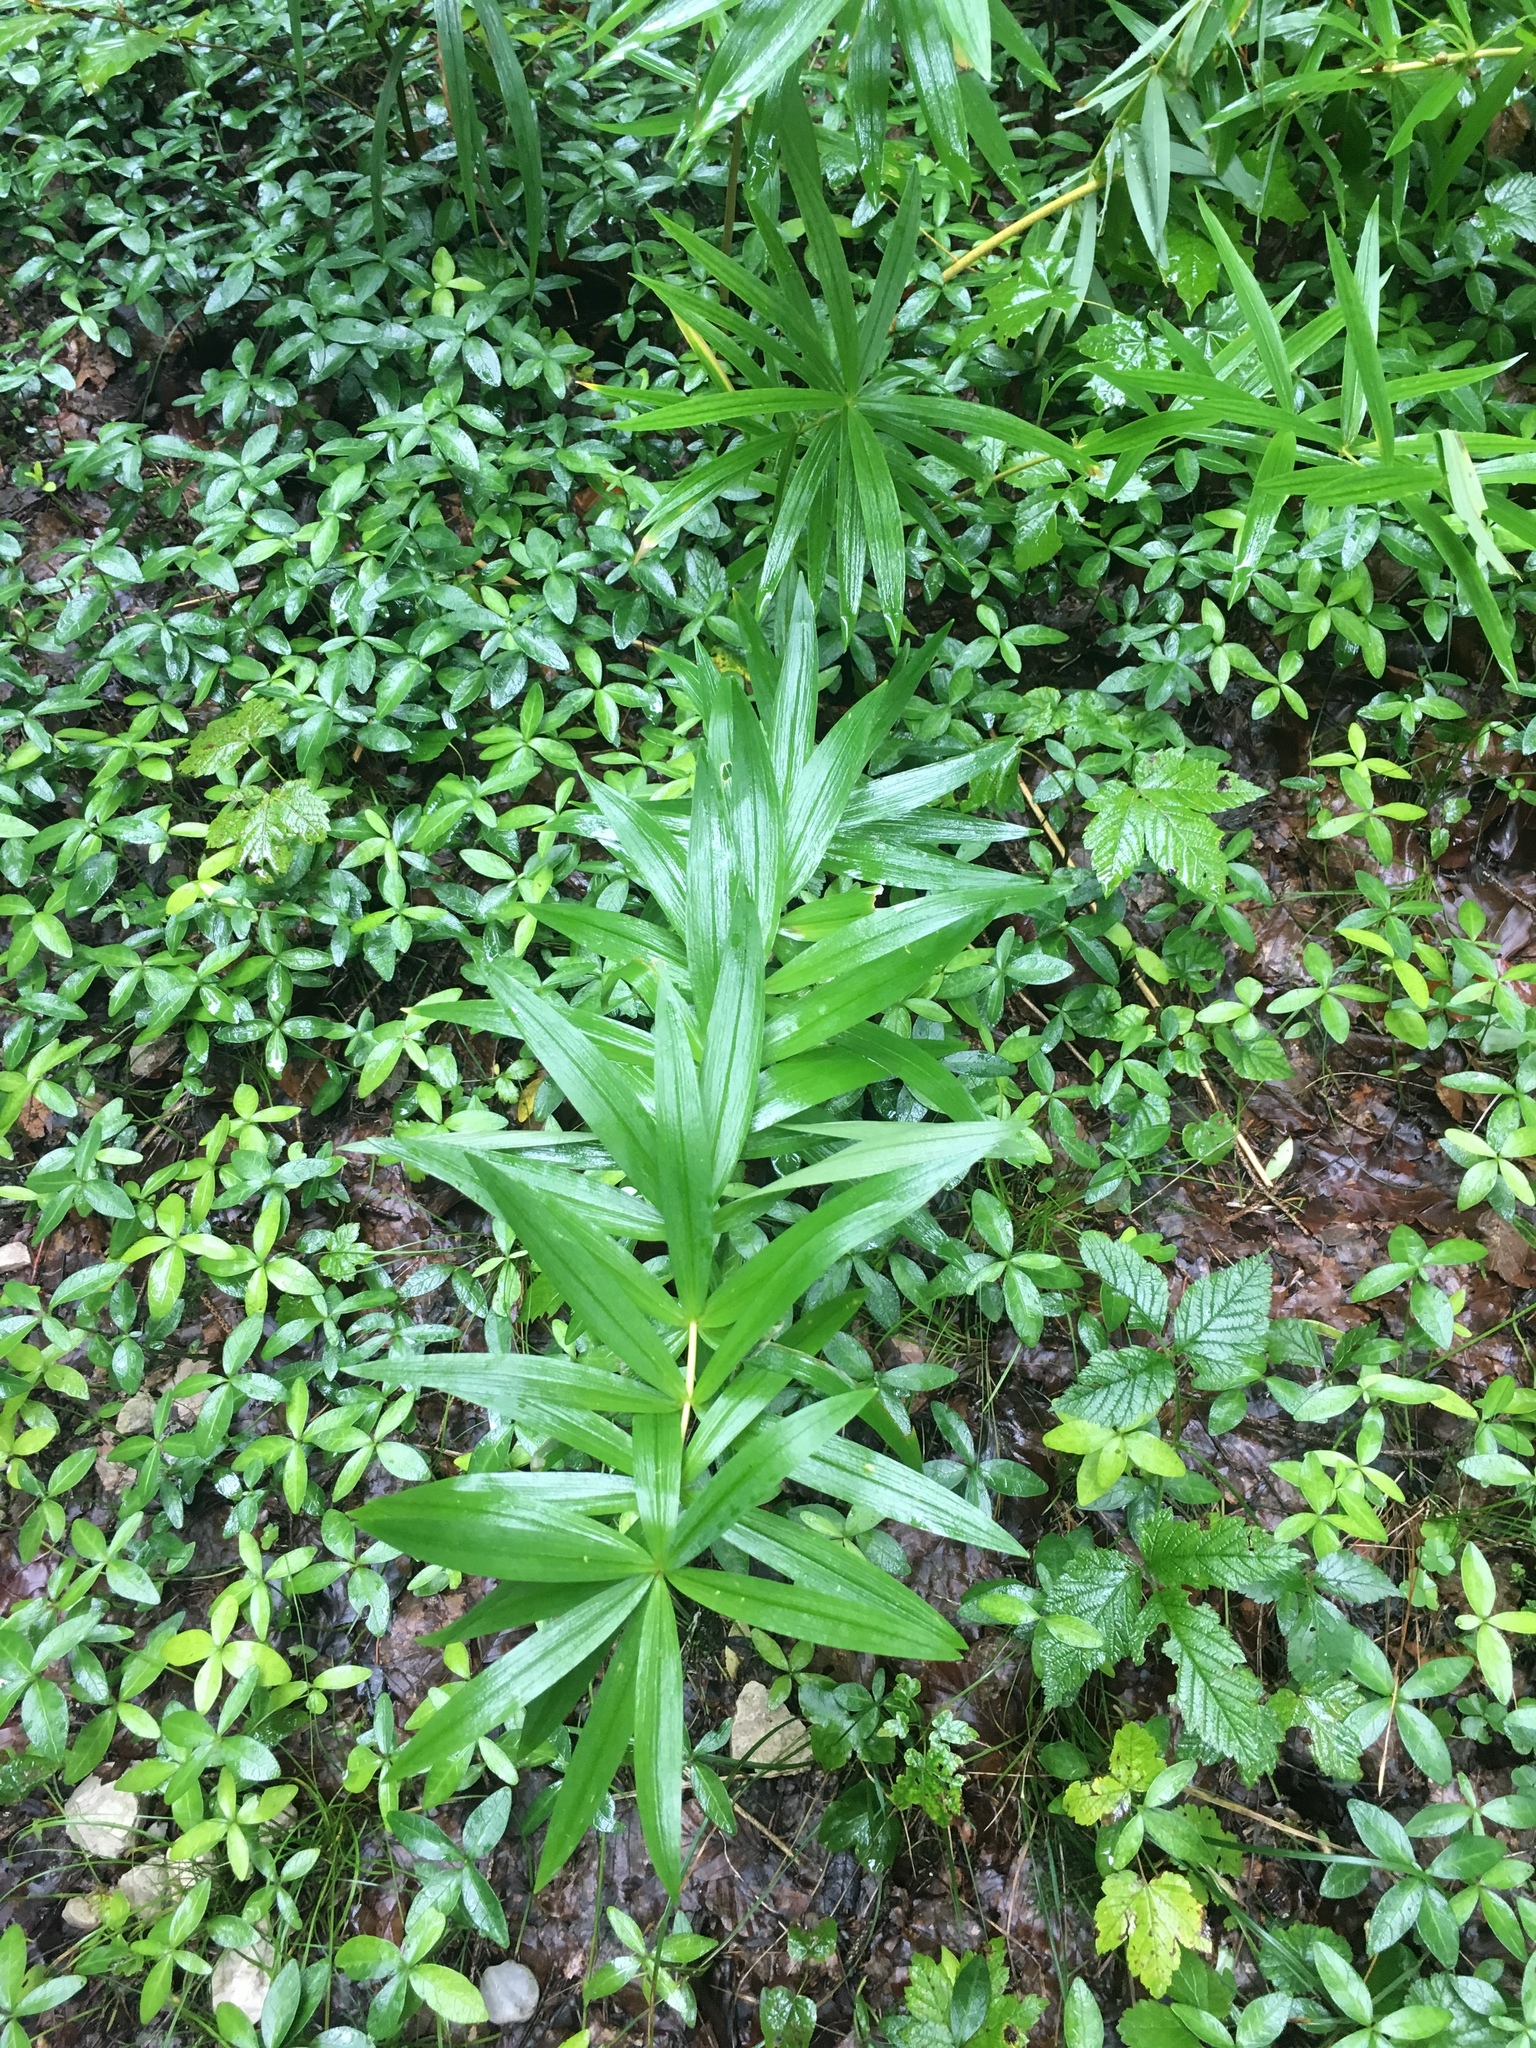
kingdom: Plantae
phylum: Tracheophyta
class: Liliopsida
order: Asparagales
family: Asparagaceae
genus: Polygonatum
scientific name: Polygonatum verticillatum
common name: Whorled solomon's-seal
